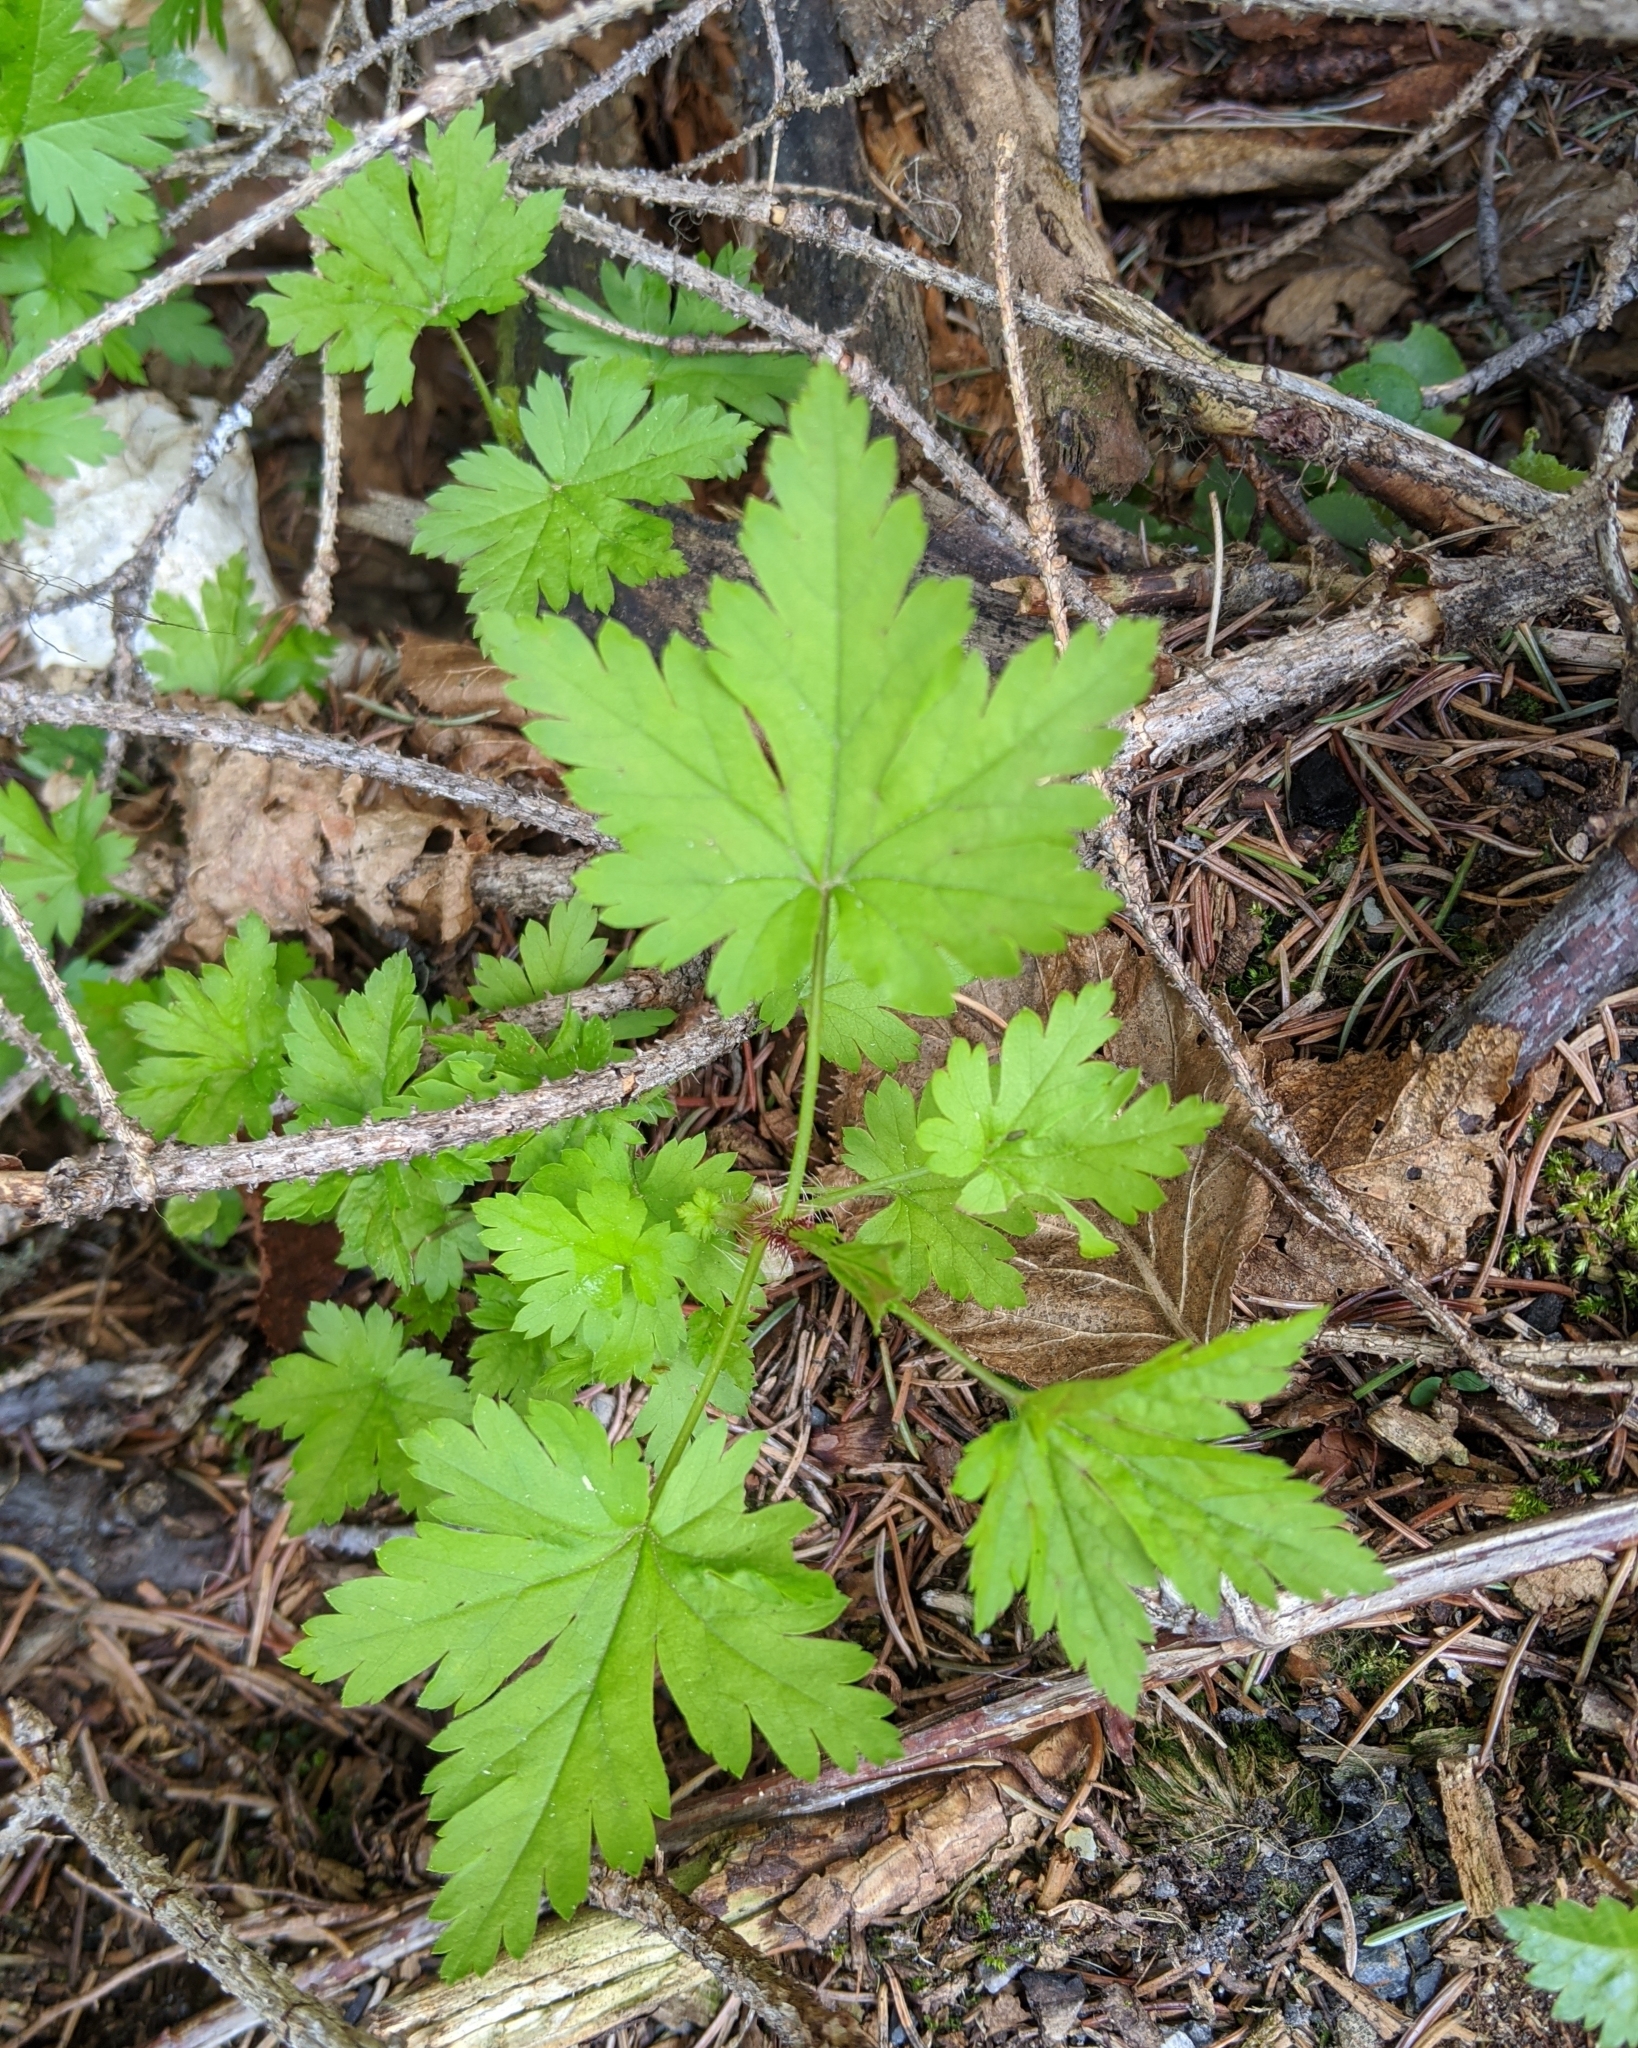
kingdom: Plantae
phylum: Tracheophyta
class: Magnoliopsida
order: Saxifragales
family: Grossulariaceae
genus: Ribes
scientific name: Ribes lacustre
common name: Black gooseberry
